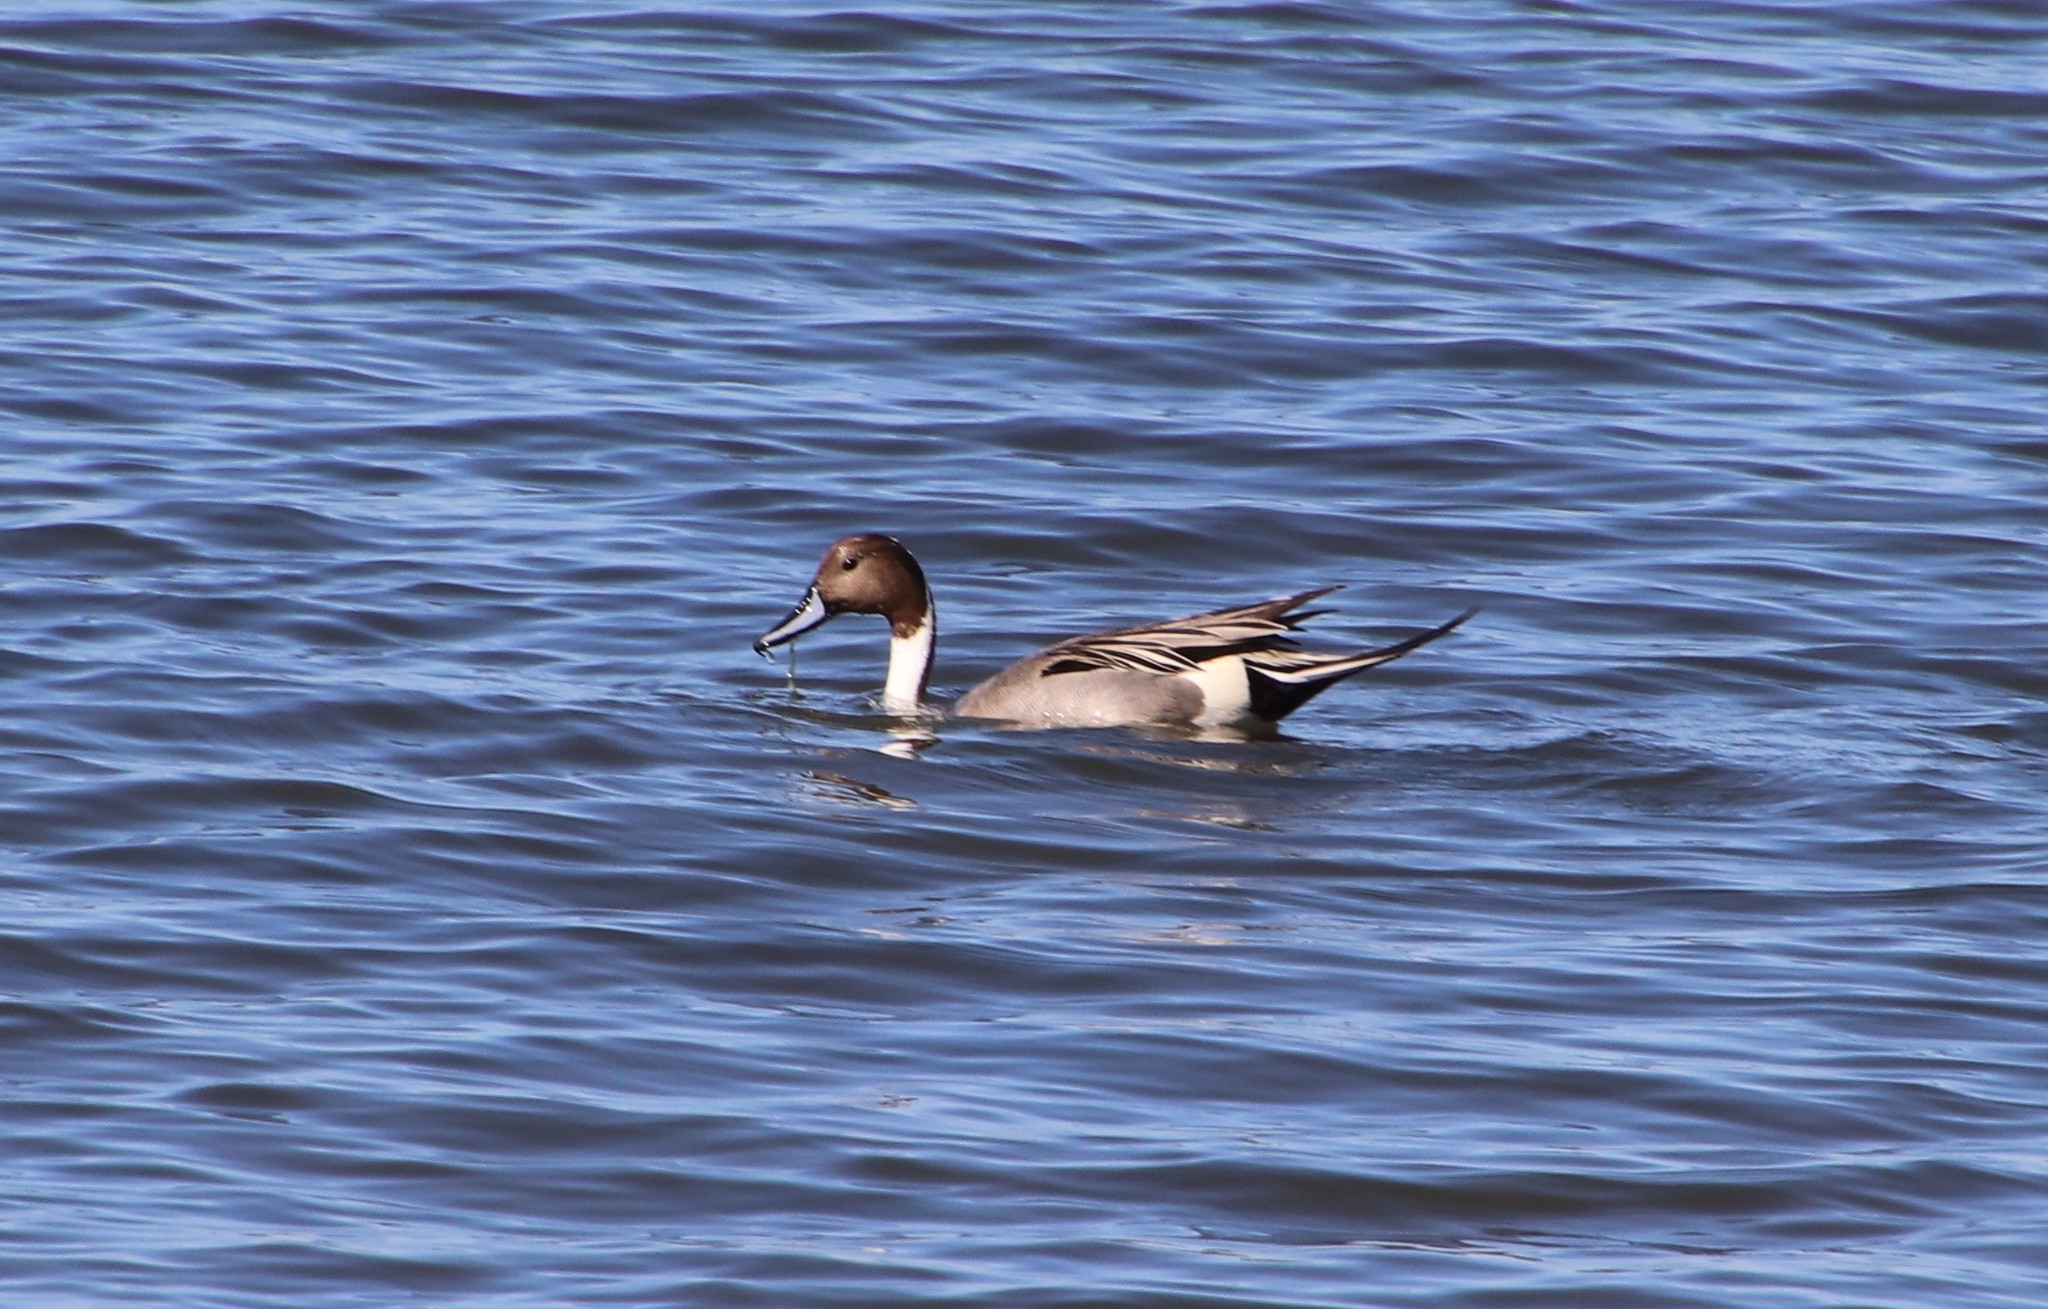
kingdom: Animalia
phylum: Chordata
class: Aves
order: Anseriformes
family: Anatidae
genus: Anas
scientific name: Anas acuta
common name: Northern pintail
